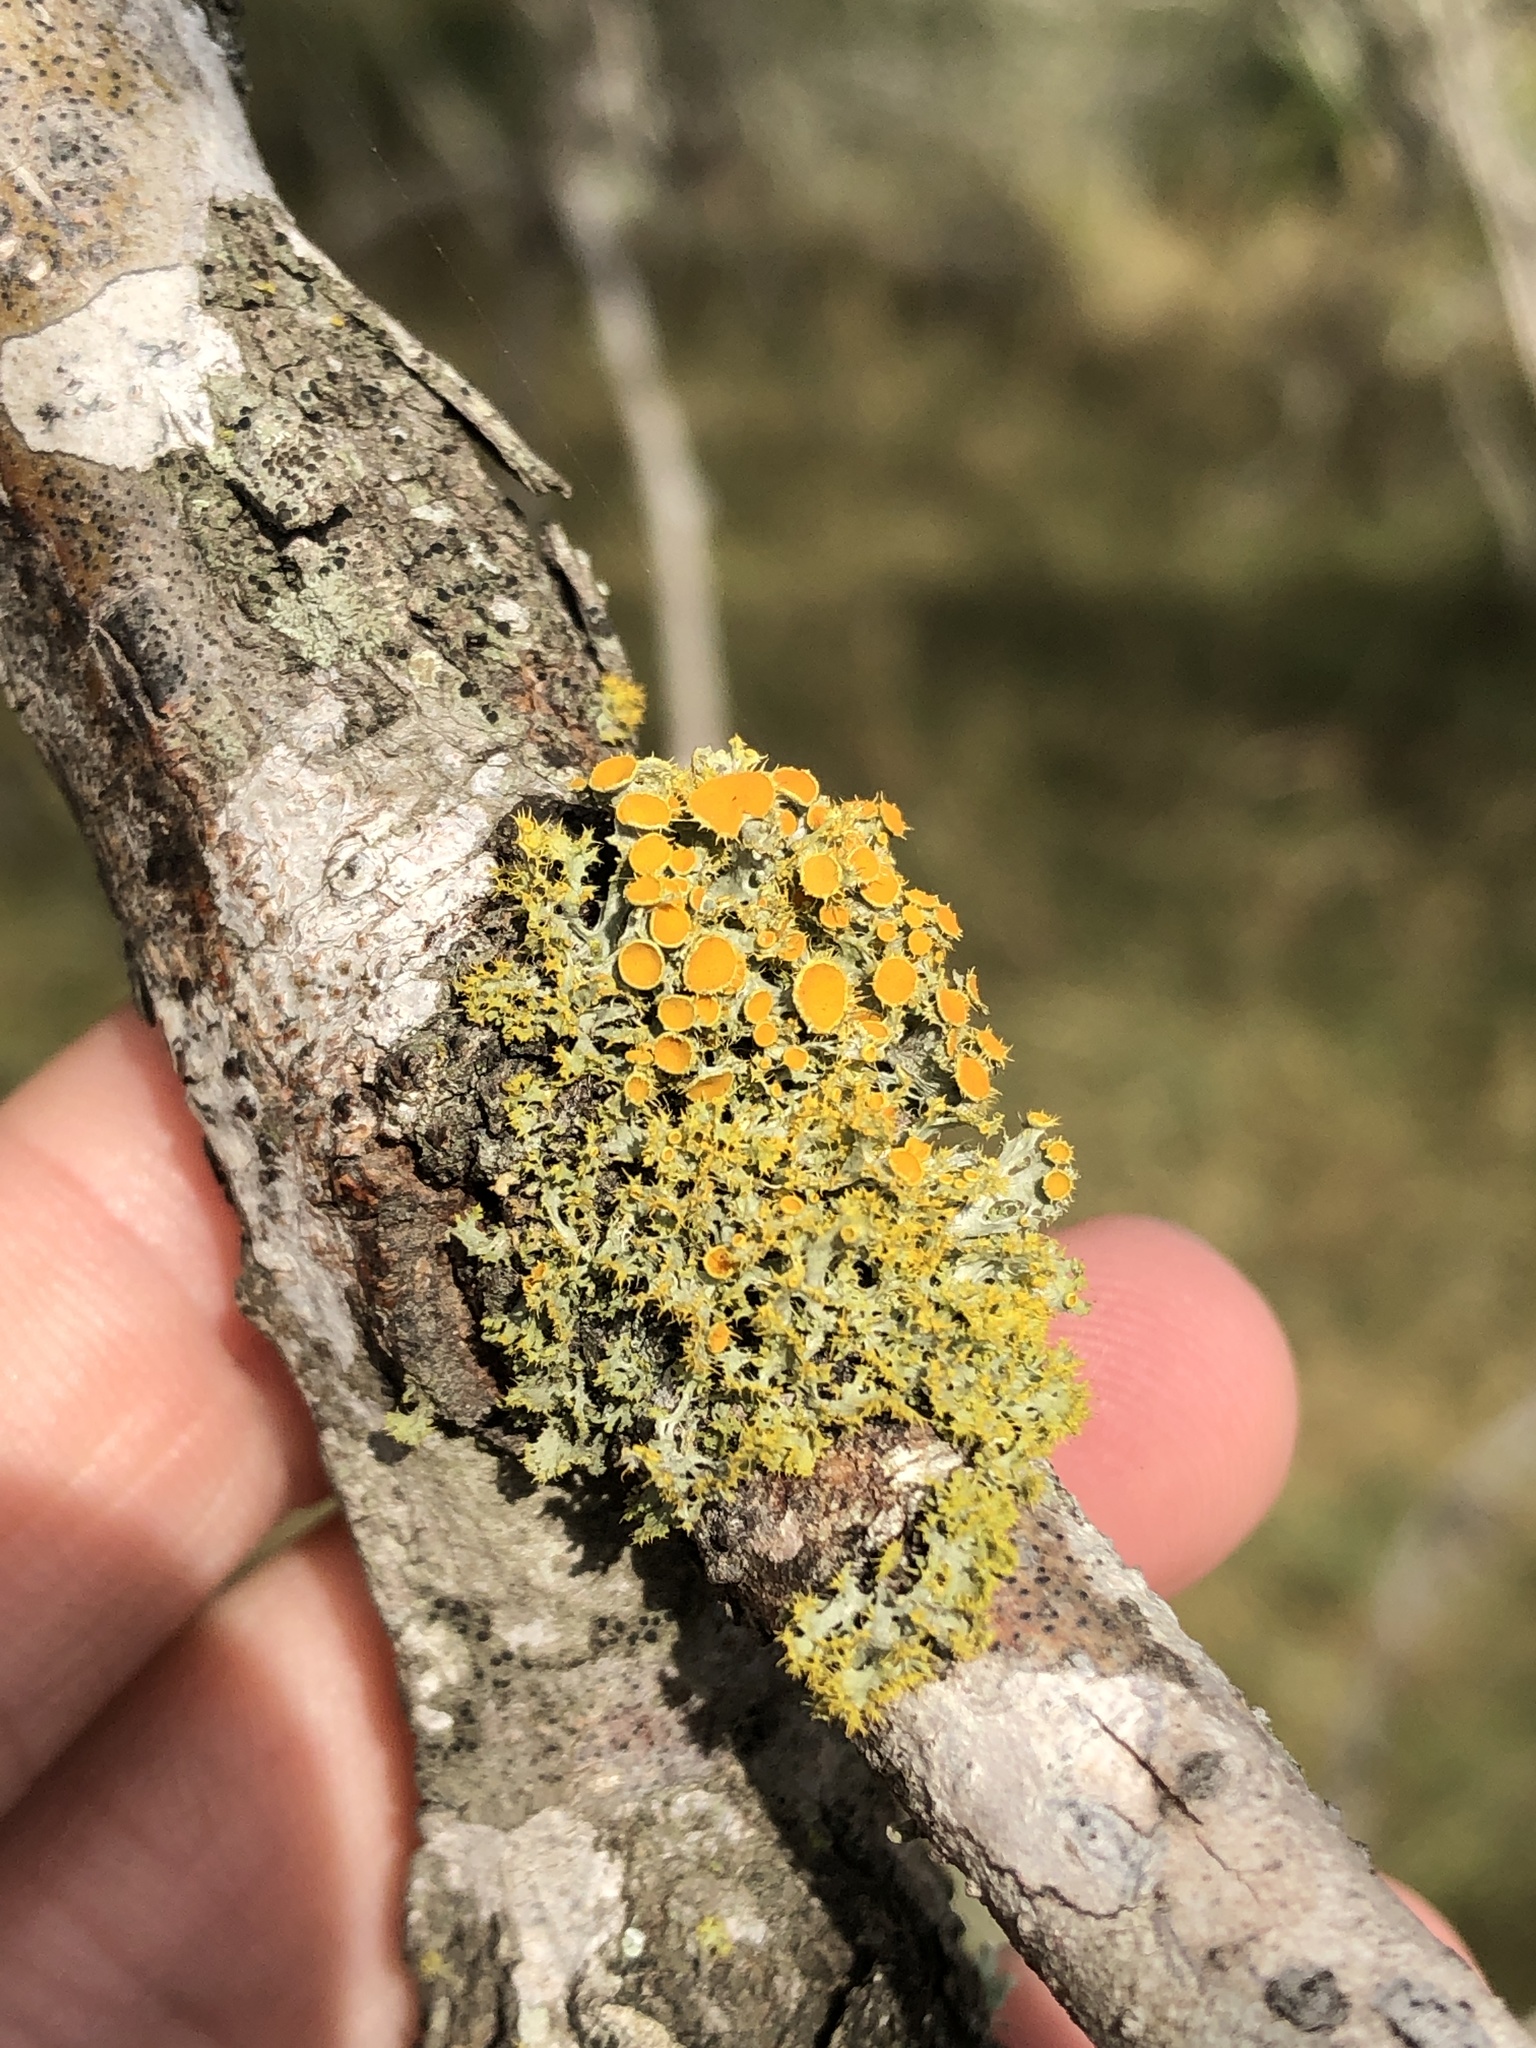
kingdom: Fungi
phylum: Ascomycota
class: Lecanoromycetes
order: Teloschistales
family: Teloschistaceae
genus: Niorma
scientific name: Niorma chrysophthalma
